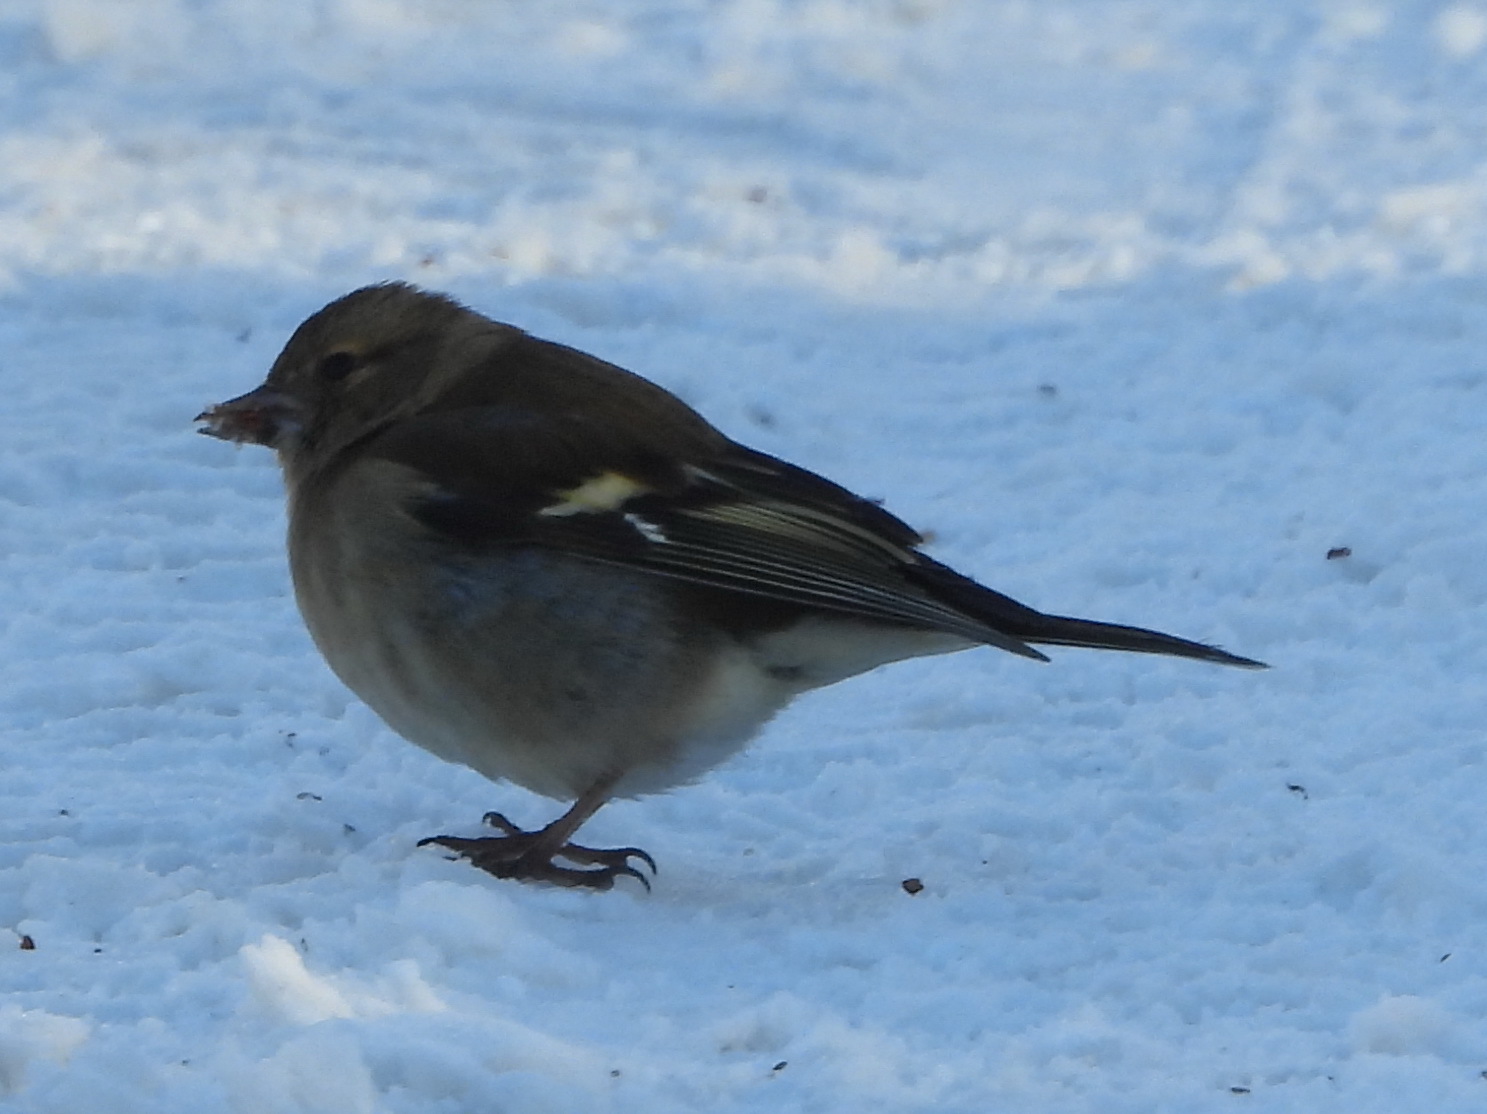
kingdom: Animalia
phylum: Chordata
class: Aves
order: Passeriformes
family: Fringillidae
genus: Fringilla
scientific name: Fringilla coelebs
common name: Common chaffinch
